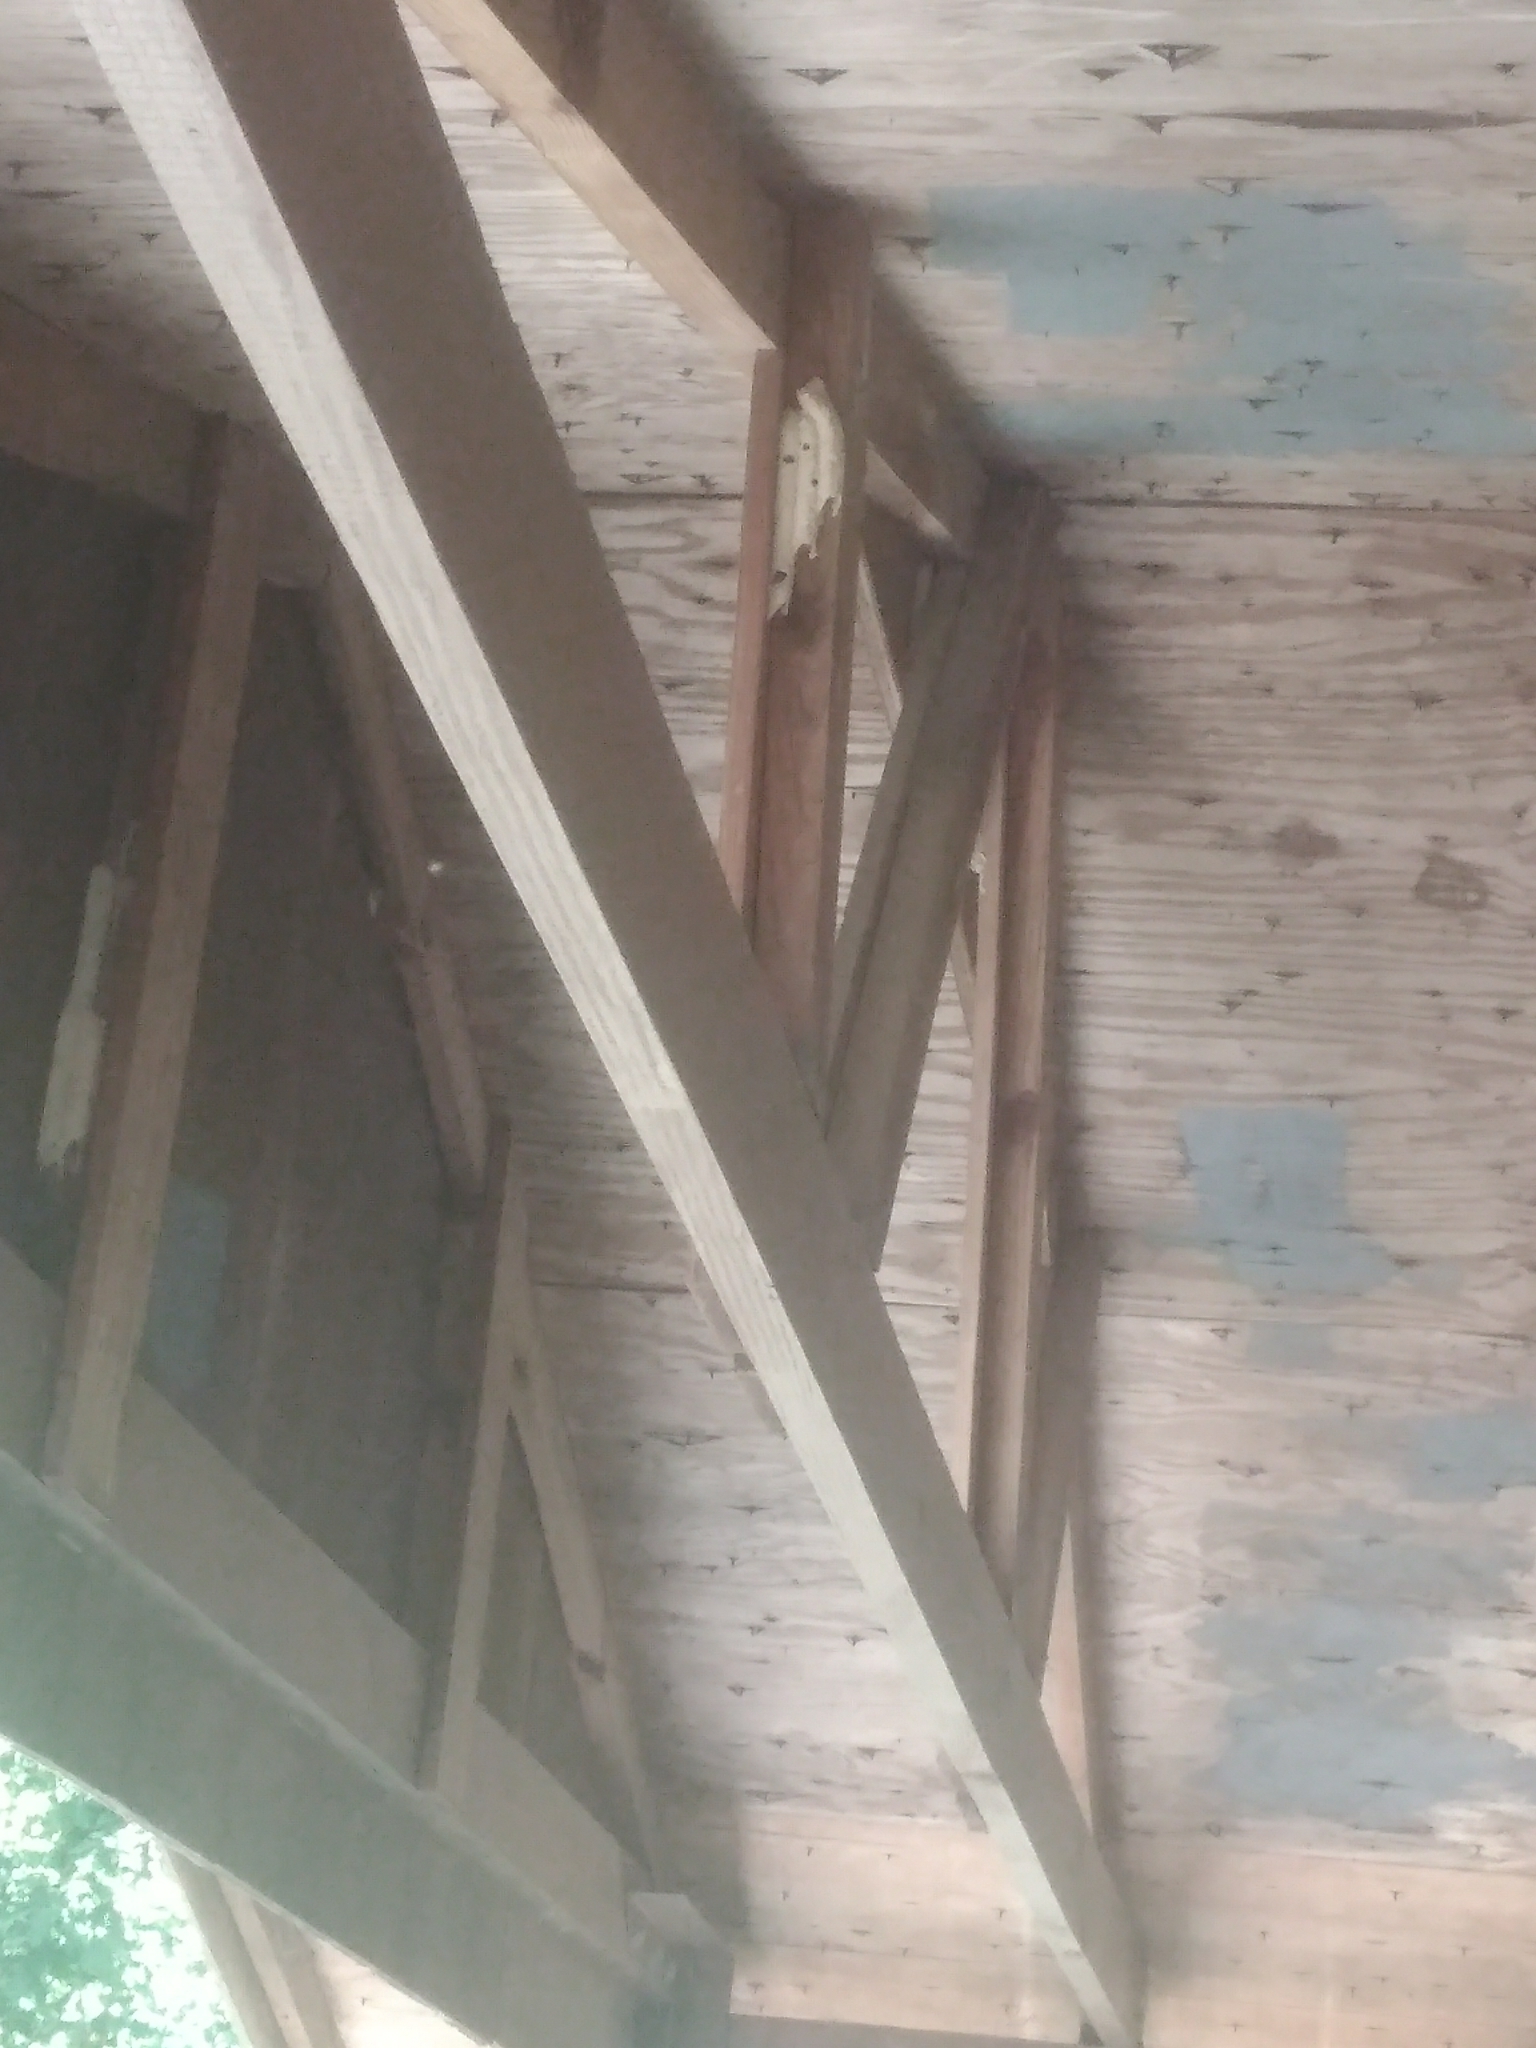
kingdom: Animalia
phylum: Arthropoda
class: Insecta
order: Hymenoptera
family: Crabronidae
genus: Trypoxylon
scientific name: Trypoxylon politum
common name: Organ-pipe mud-dauber wasp
